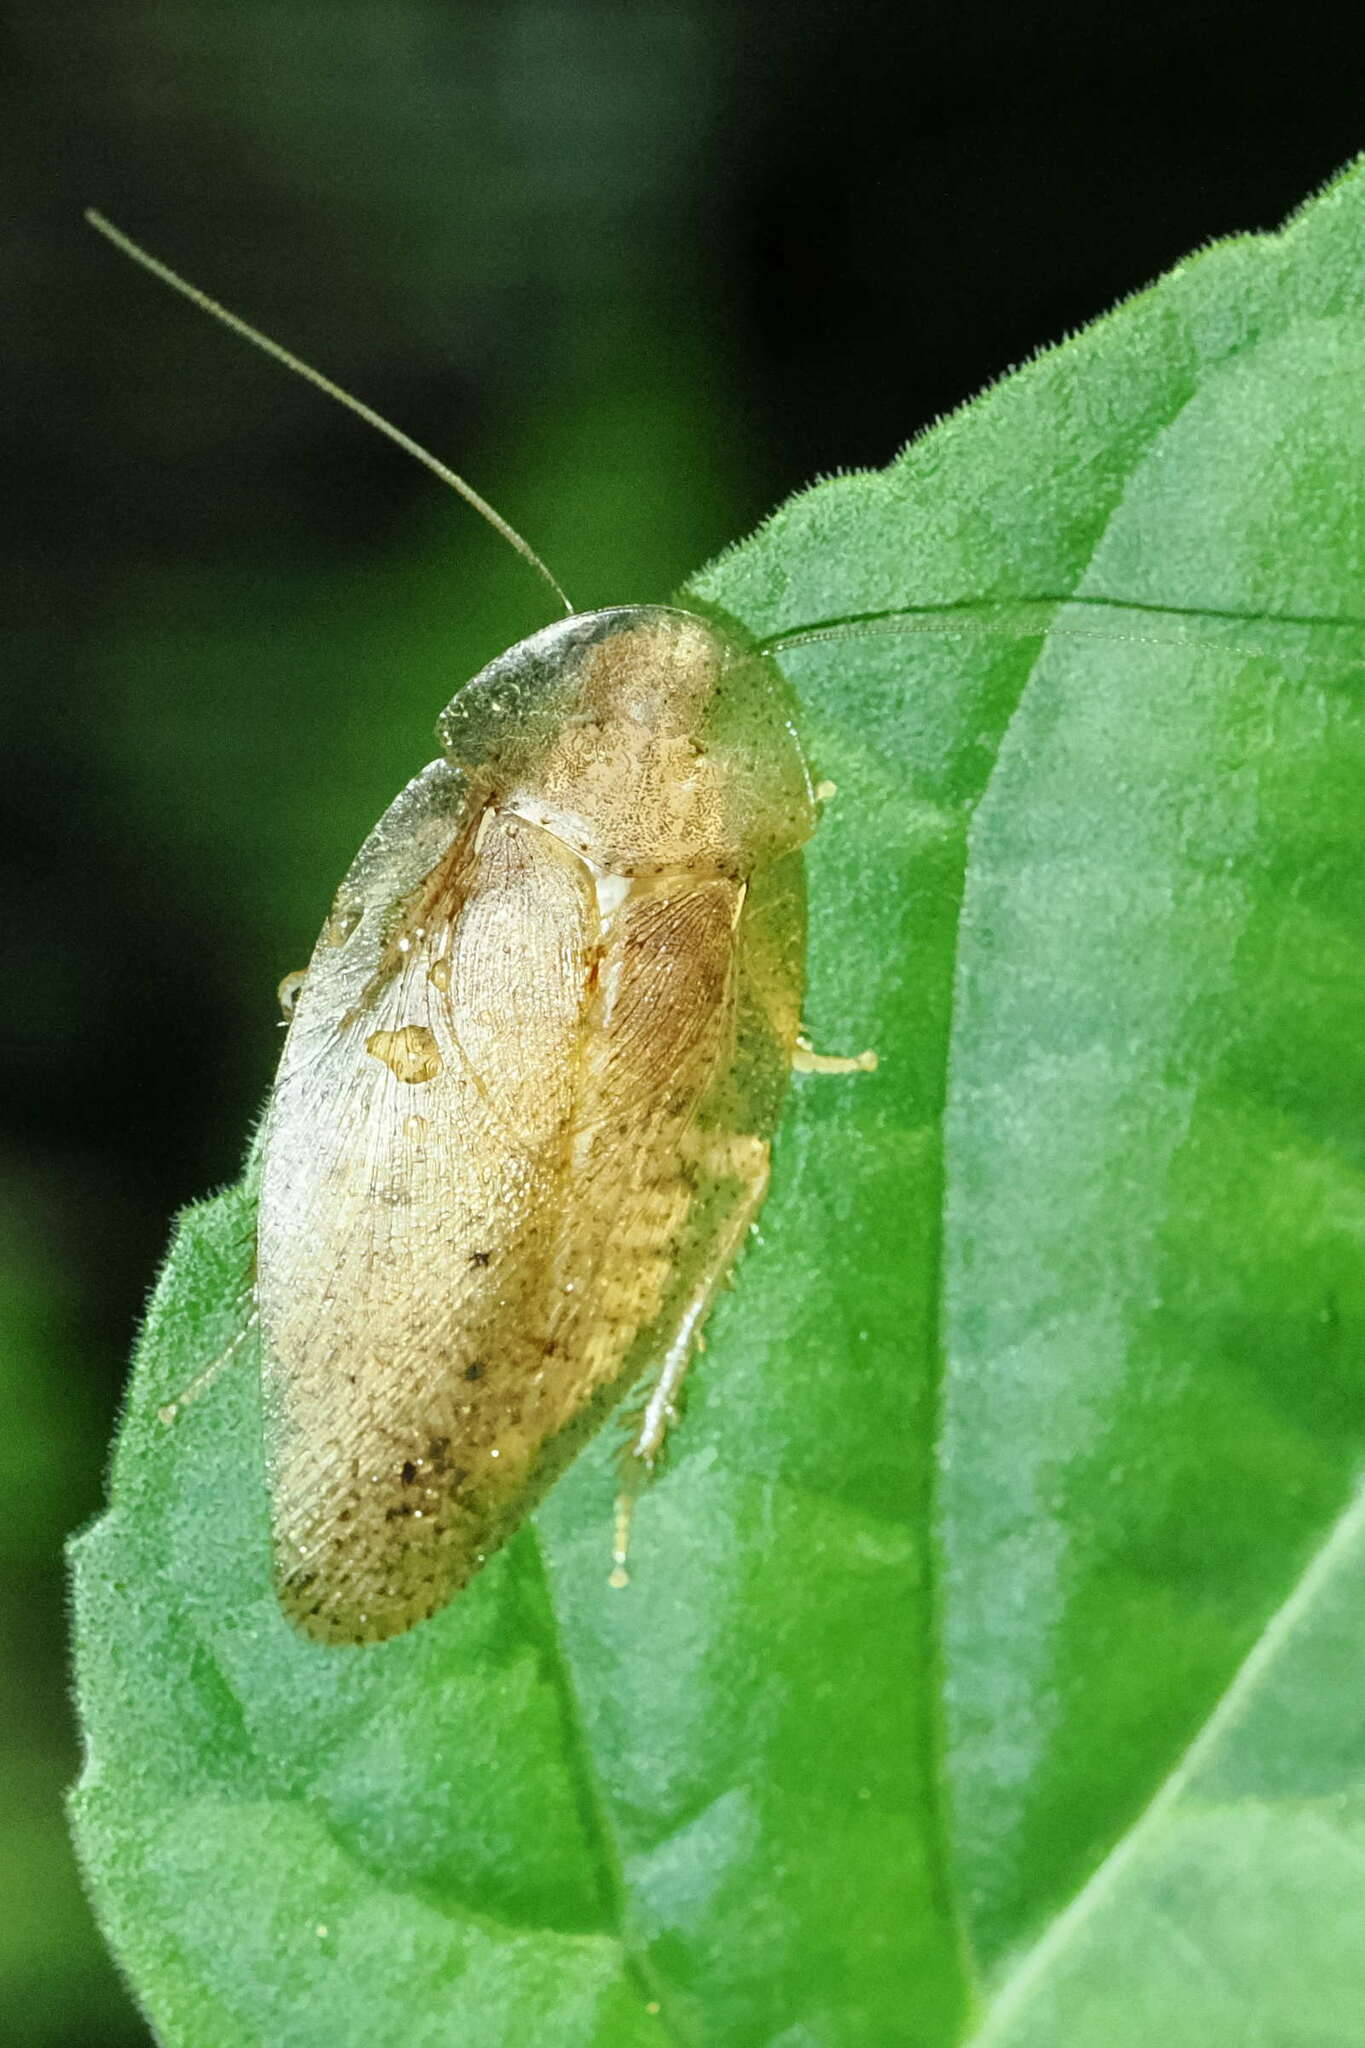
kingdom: Animalia
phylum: Arthropoda
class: Insecta
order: Blattodea
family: Blaberidae
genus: Thanatophyllum
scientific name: Thanatophyllum akinetum
